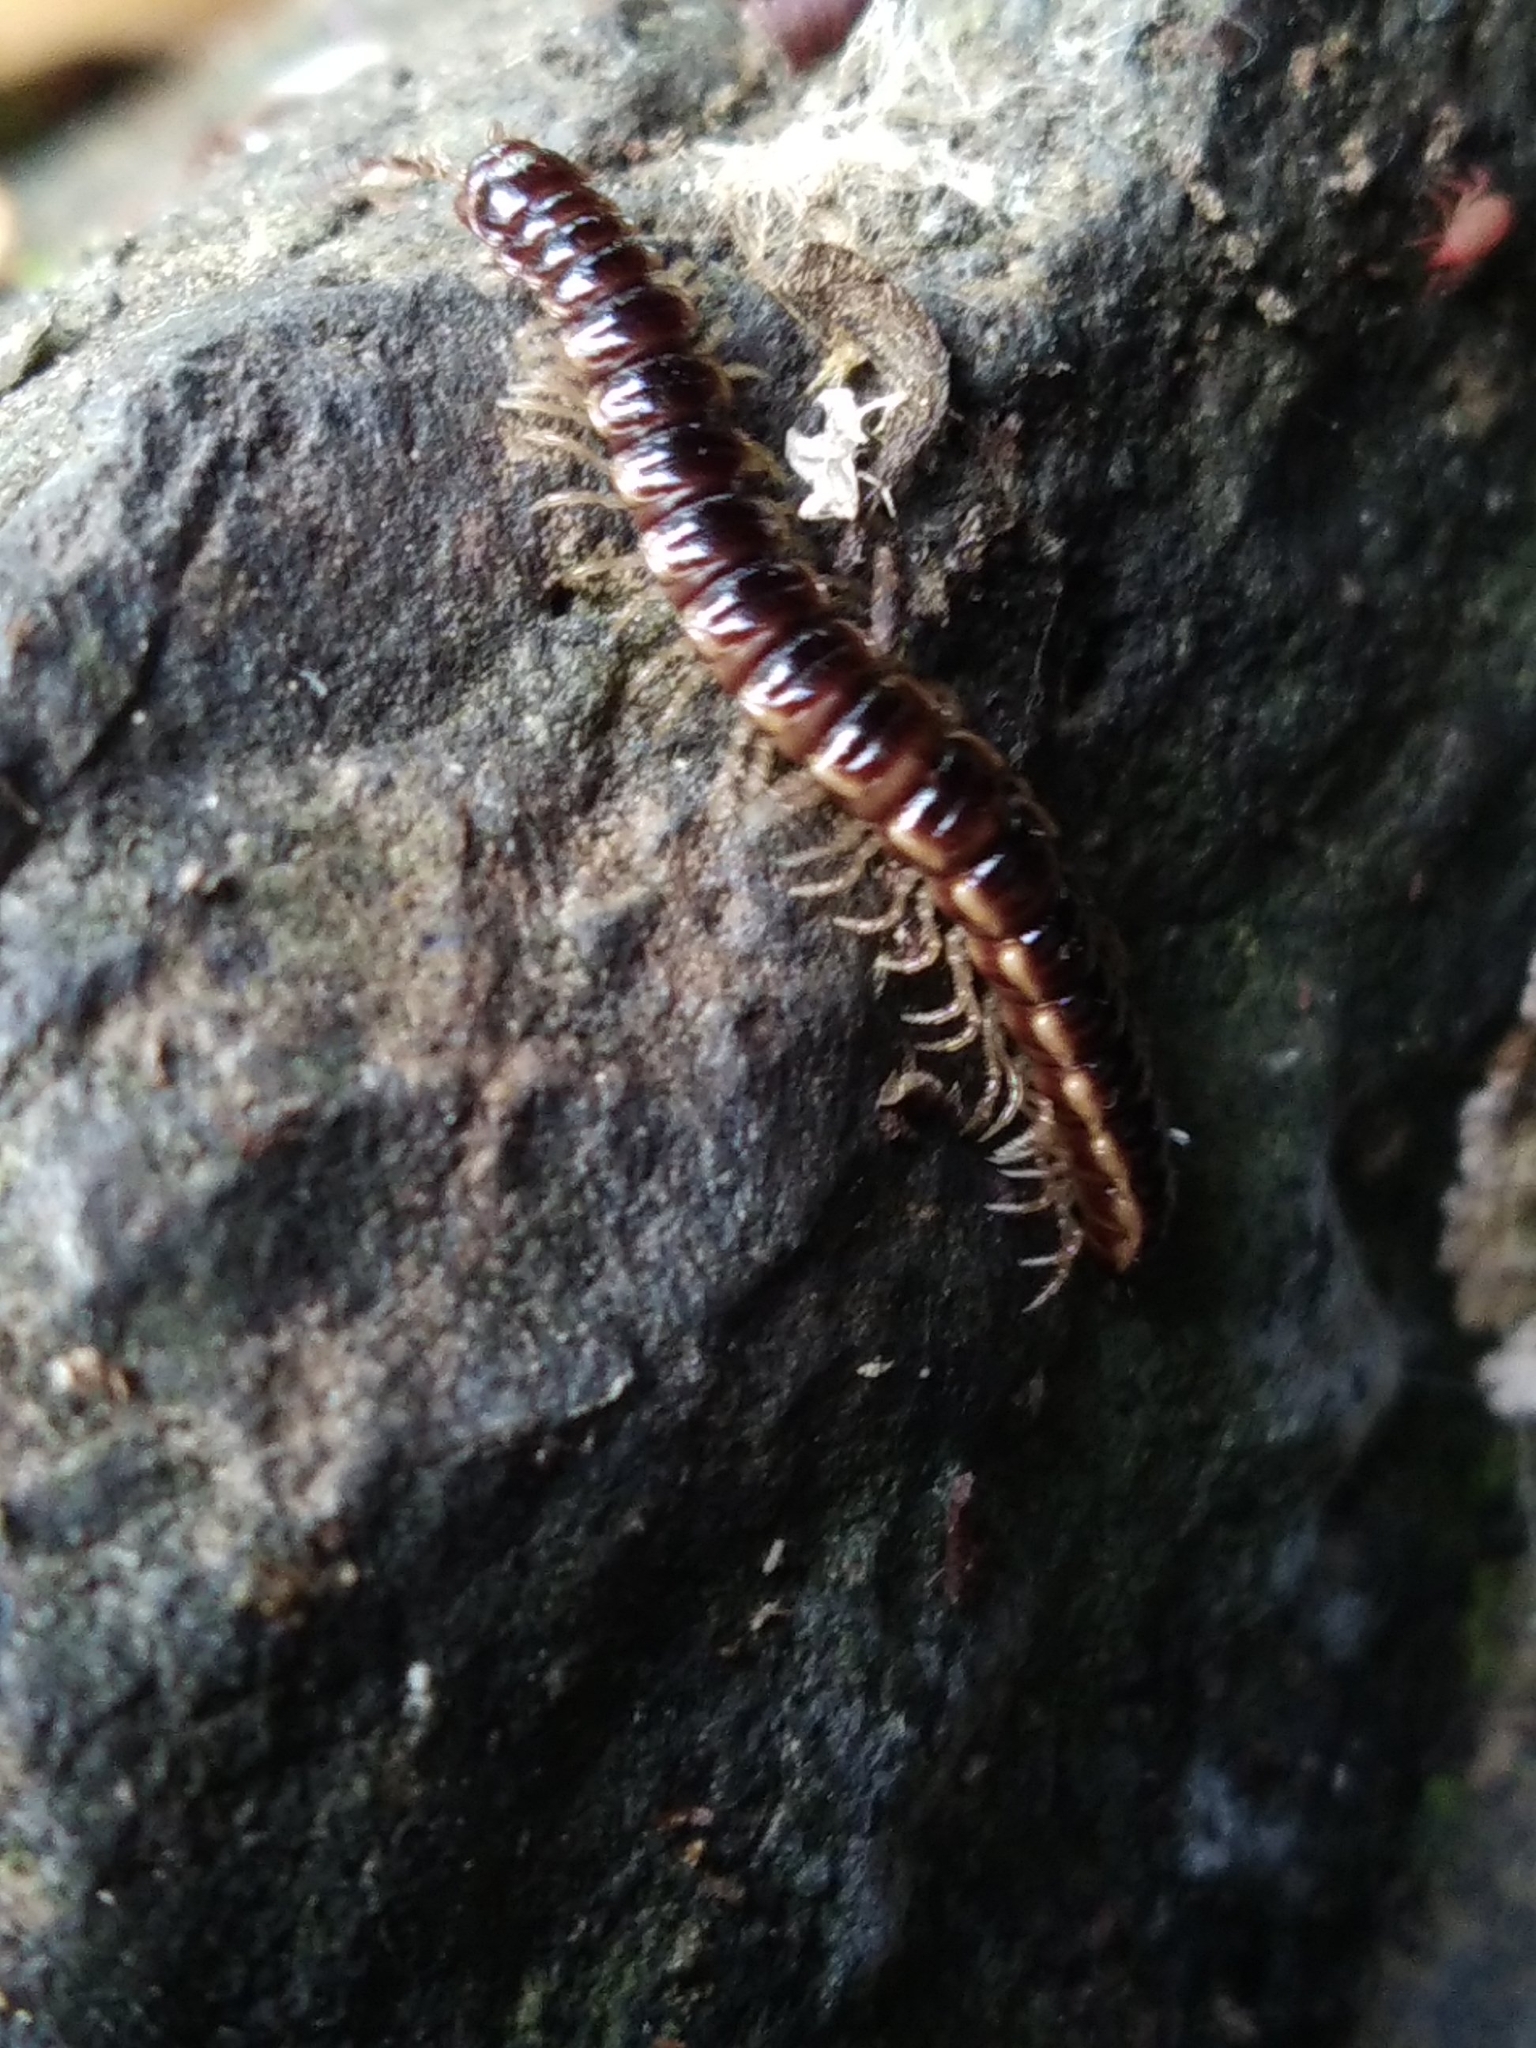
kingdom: Animalia
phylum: Arthropoda
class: Diplopoda
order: Polydesmida
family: Paradoxosomatidae
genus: Oxidus
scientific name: Oxidus gracilis
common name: Greenhouse millipede
